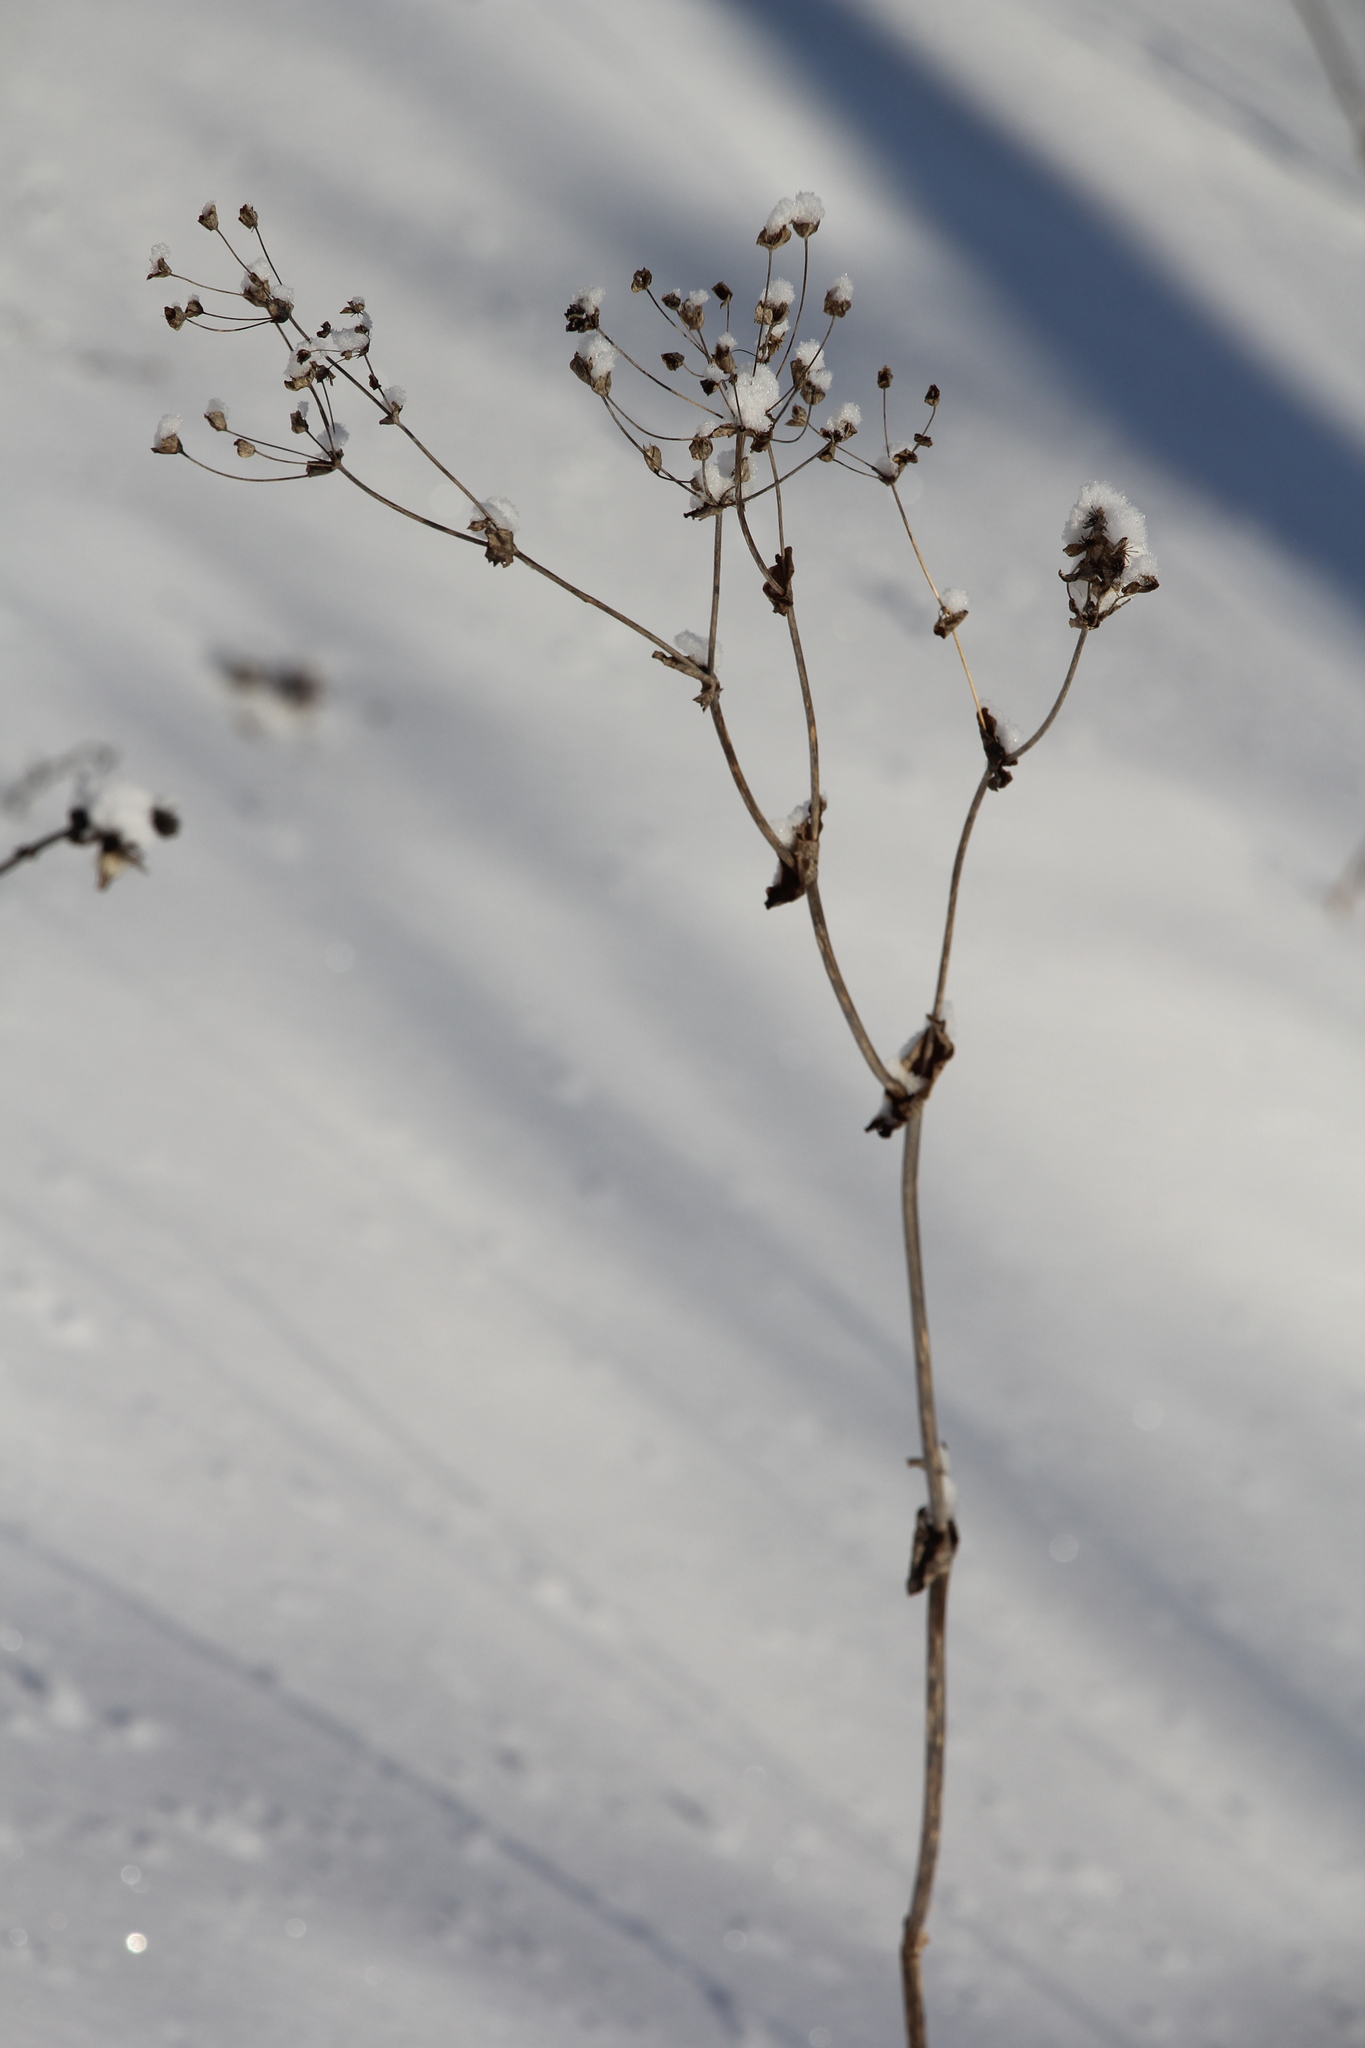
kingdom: Plantae
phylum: Tracheophyta
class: Magnoliopsida
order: Apiales
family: Apiaceae
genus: Bupleurum
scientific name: Bupleurum aureum
